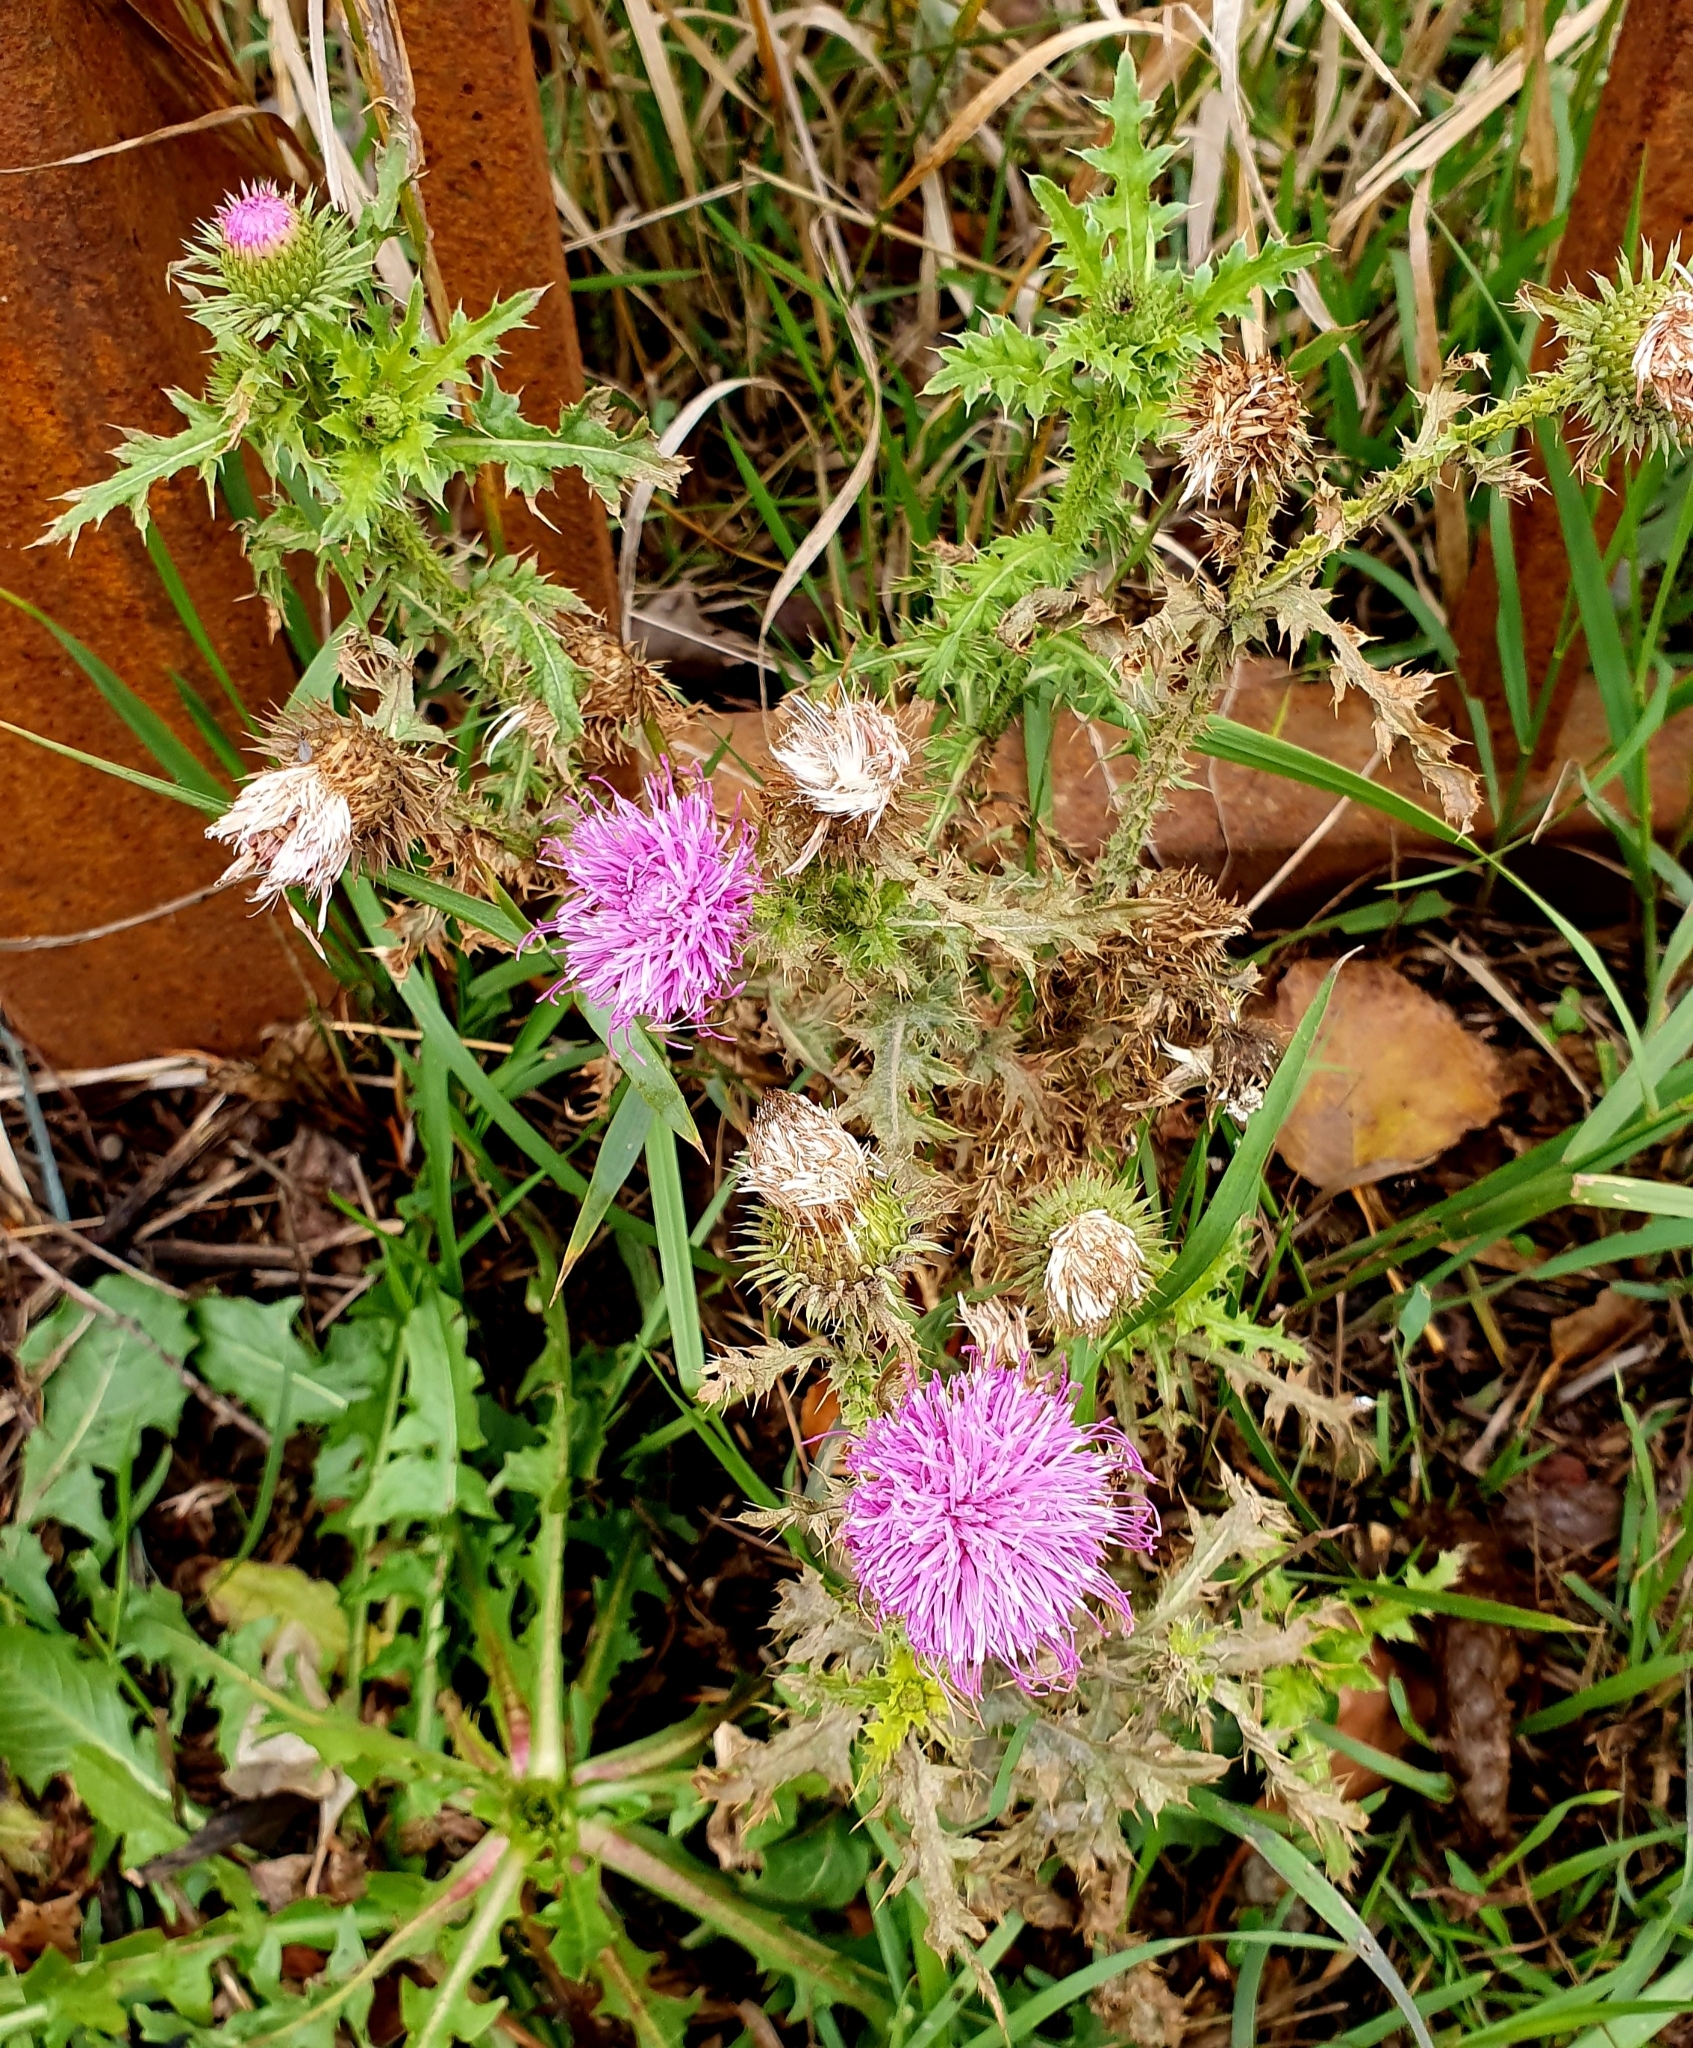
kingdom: Plantae
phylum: Tracheophyta
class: Magnoliopsida
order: Asterales
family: Asteraceae
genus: Carduus
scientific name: Carduus acanthoides
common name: Plumeless thistle
